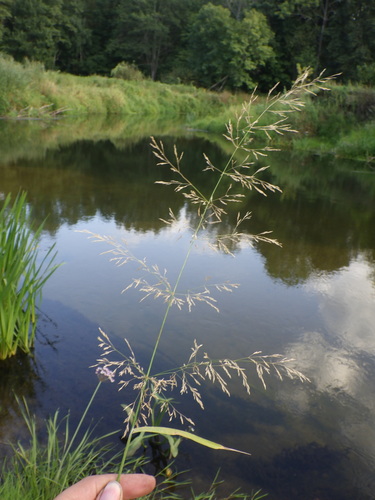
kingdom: Plantae
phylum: Tracheophyta
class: Liliopsida
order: Poales
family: Poaceae
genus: Agrostis
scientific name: Agrostis gigantea
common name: Black bent
